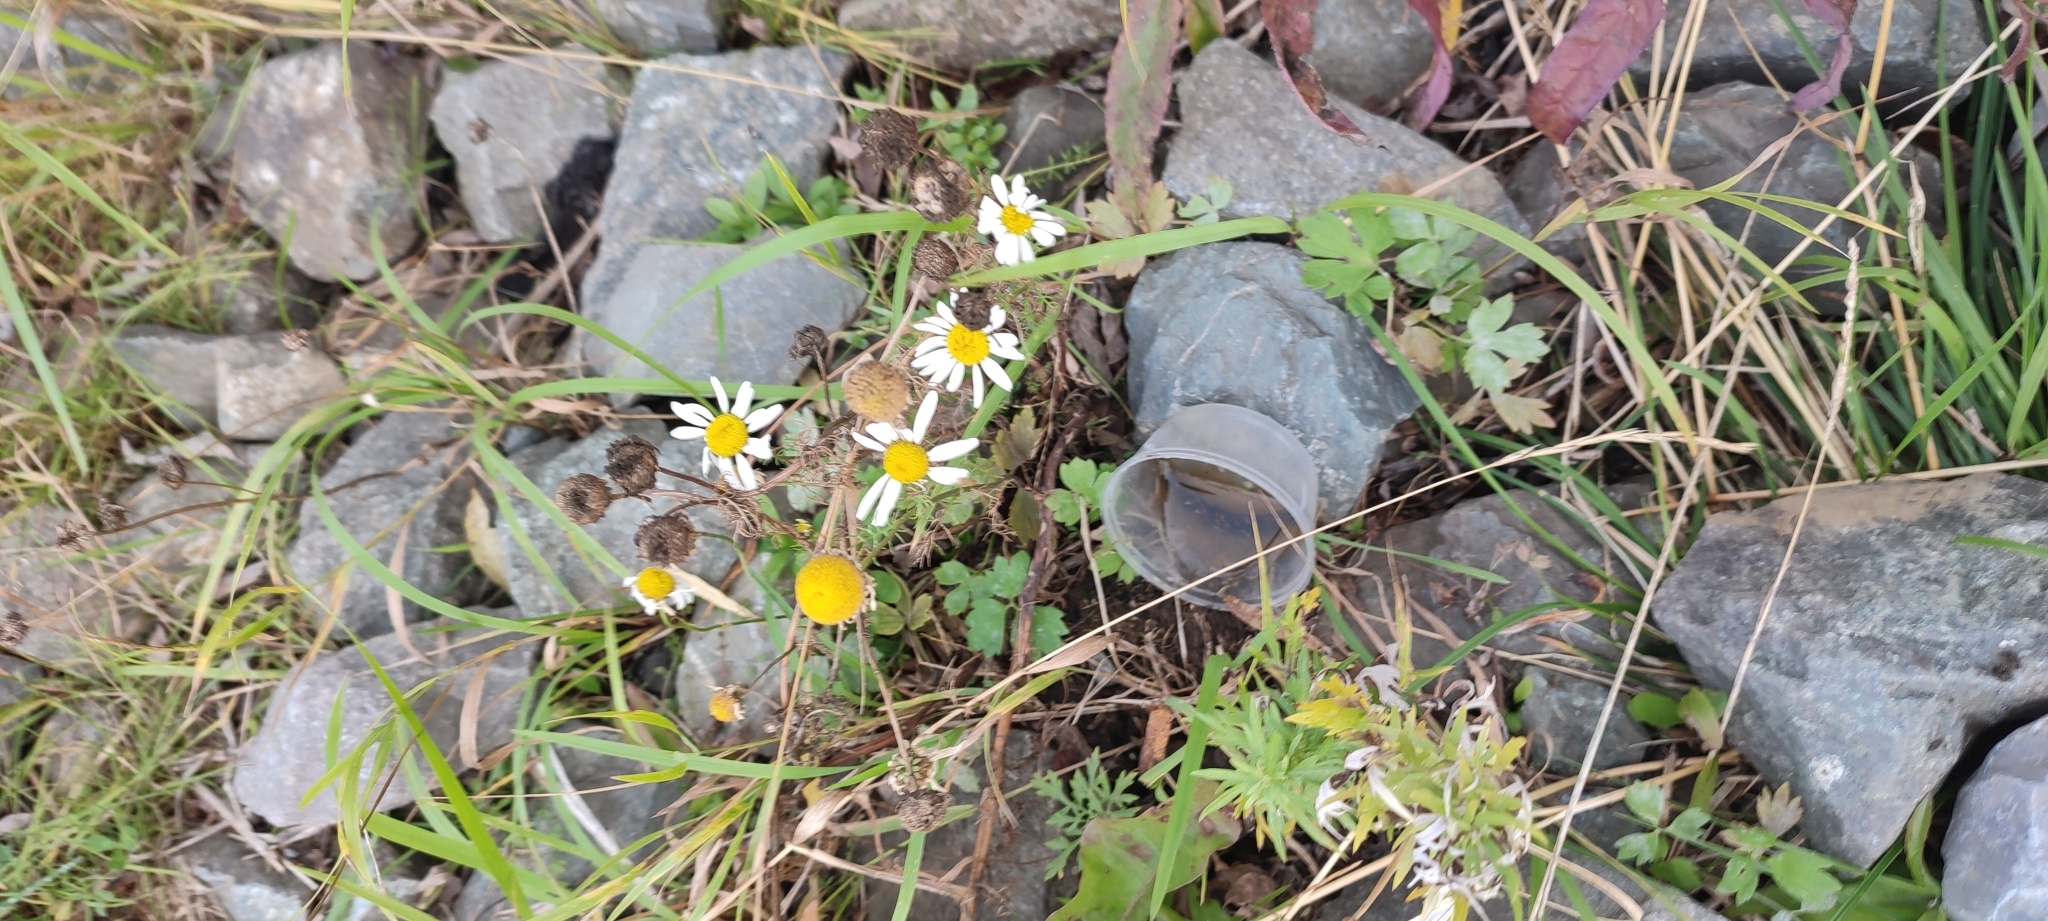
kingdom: Plantae
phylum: Tracheophyta
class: Magnoliopsida
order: Asterales
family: Asteraceae
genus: Tripleurospermum
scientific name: Tripleurospermum inodorum
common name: Scentless mayweed
